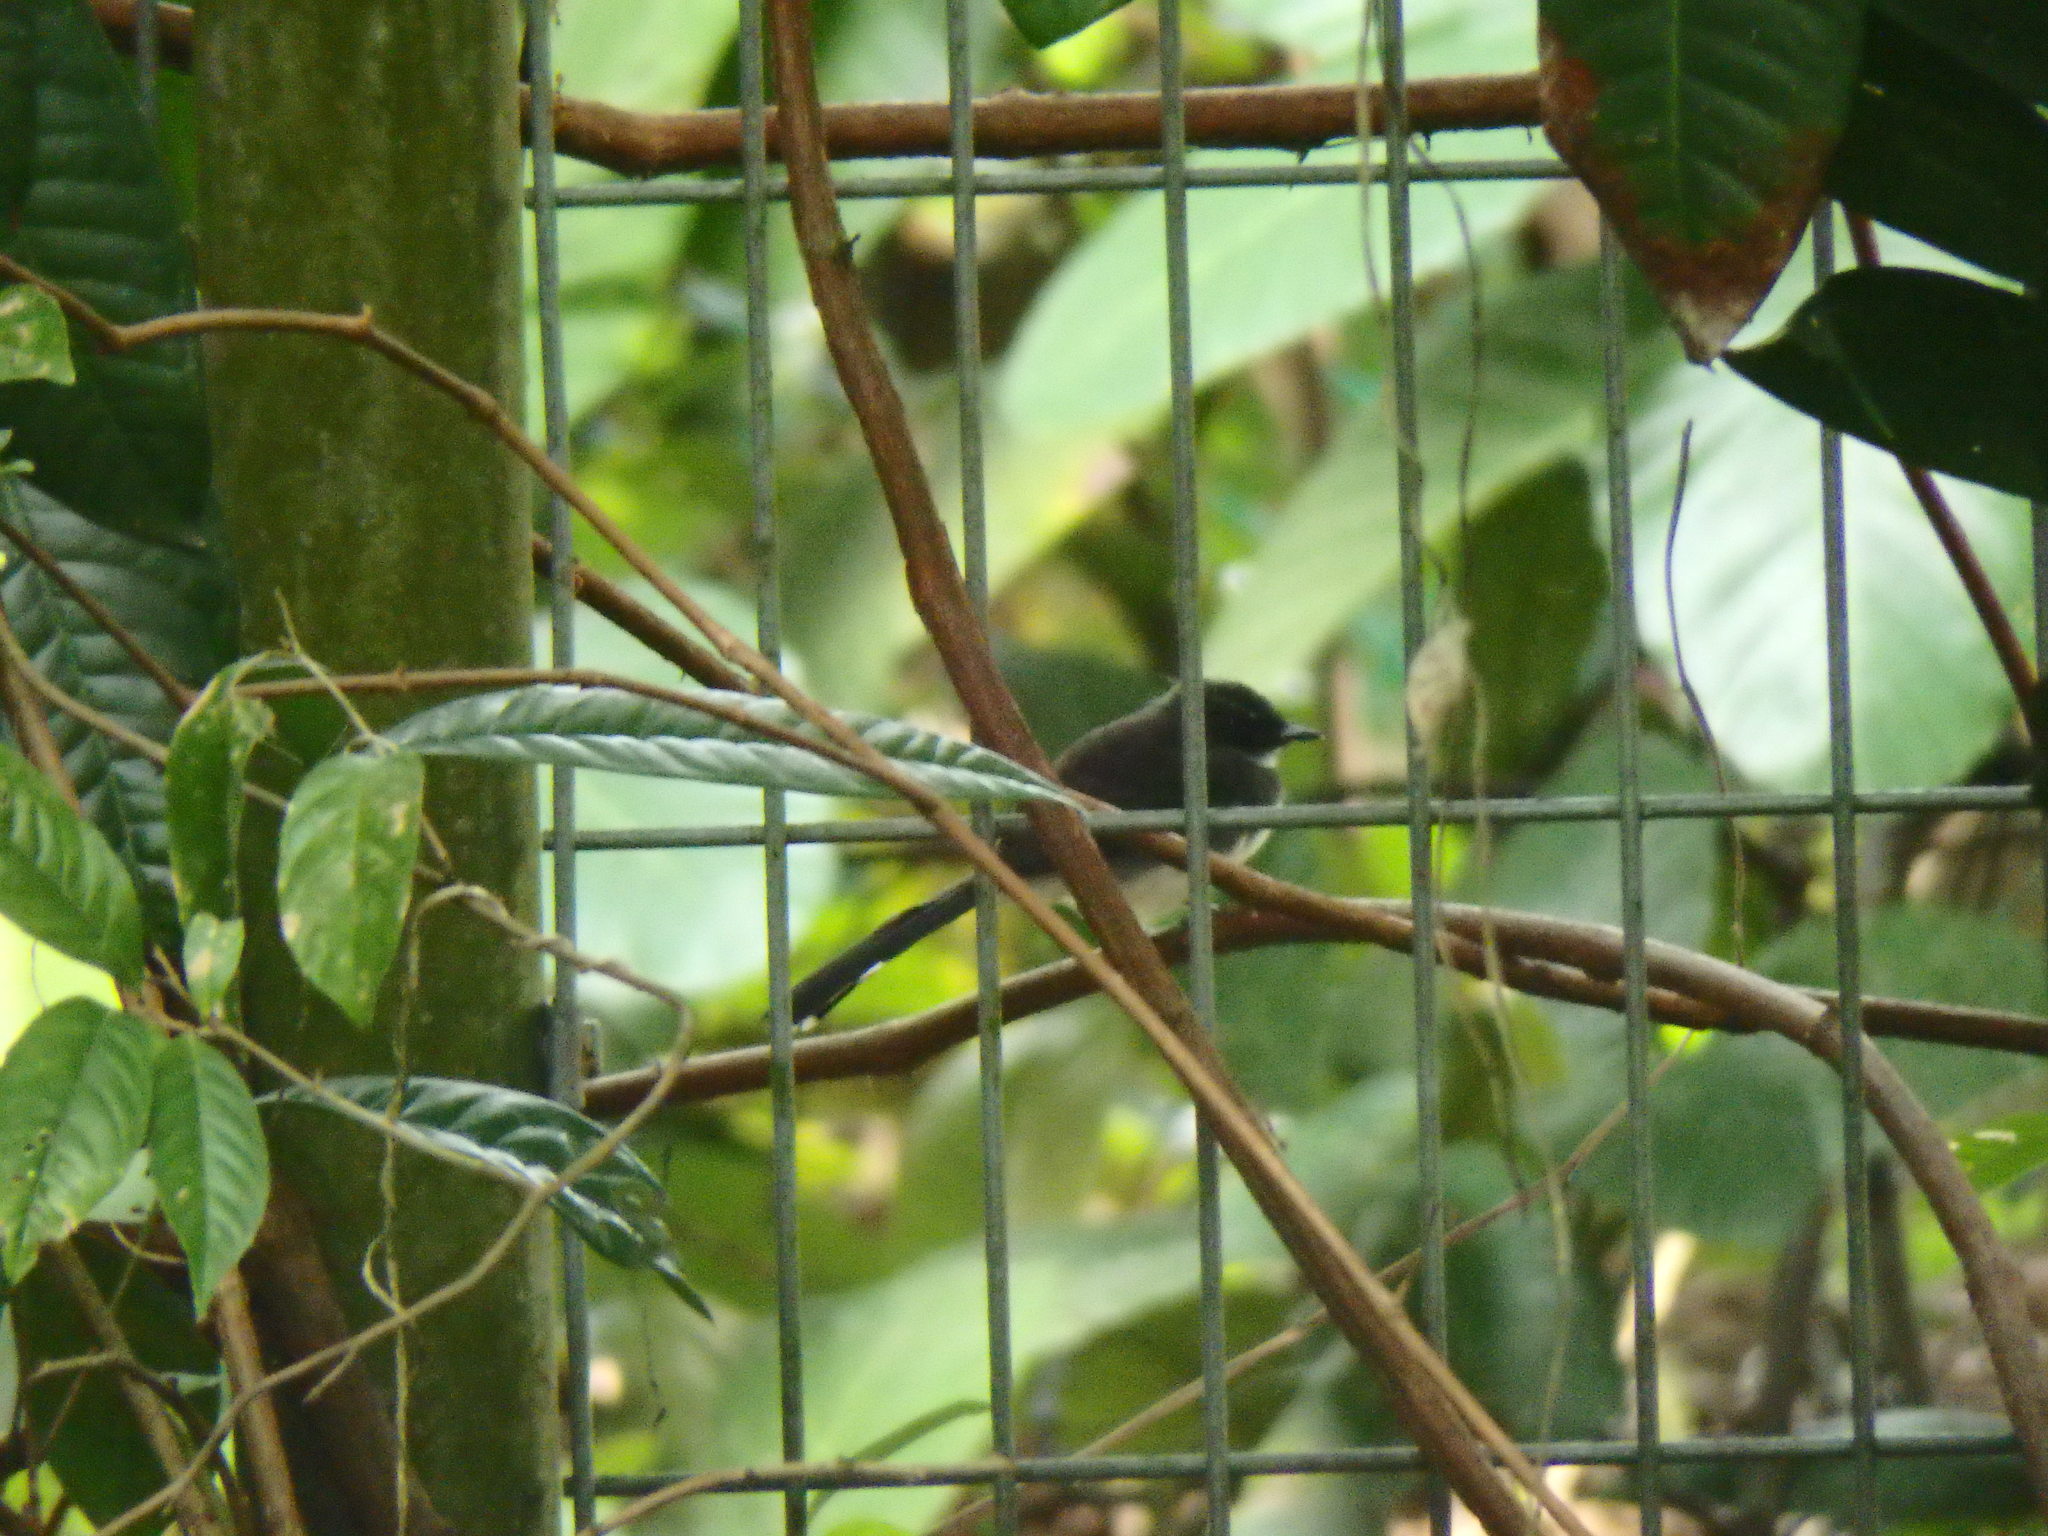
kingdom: Animalia
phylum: Chordata
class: Aves
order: Passeriformes
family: Rhipiduridae
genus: Rhipidura
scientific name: Rhipidura javanica
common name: Pied fantail
